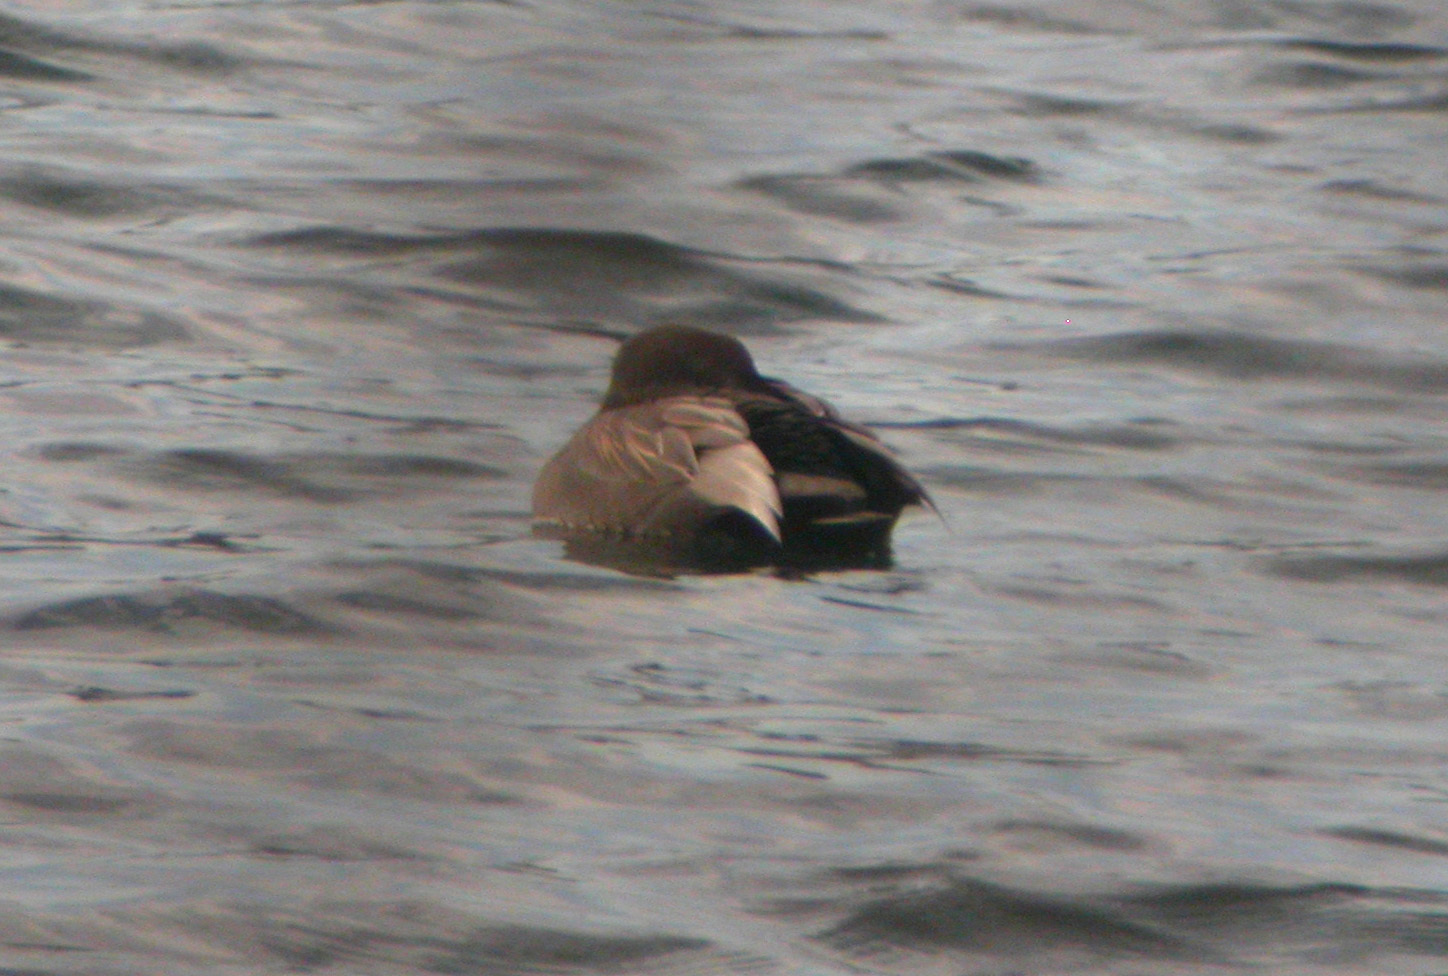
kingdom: Animalia
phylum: Chordata
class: Aves
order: Anseriformes
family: Anatidae
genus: Mareca
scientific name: Mareca strepera
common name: Gadwall
